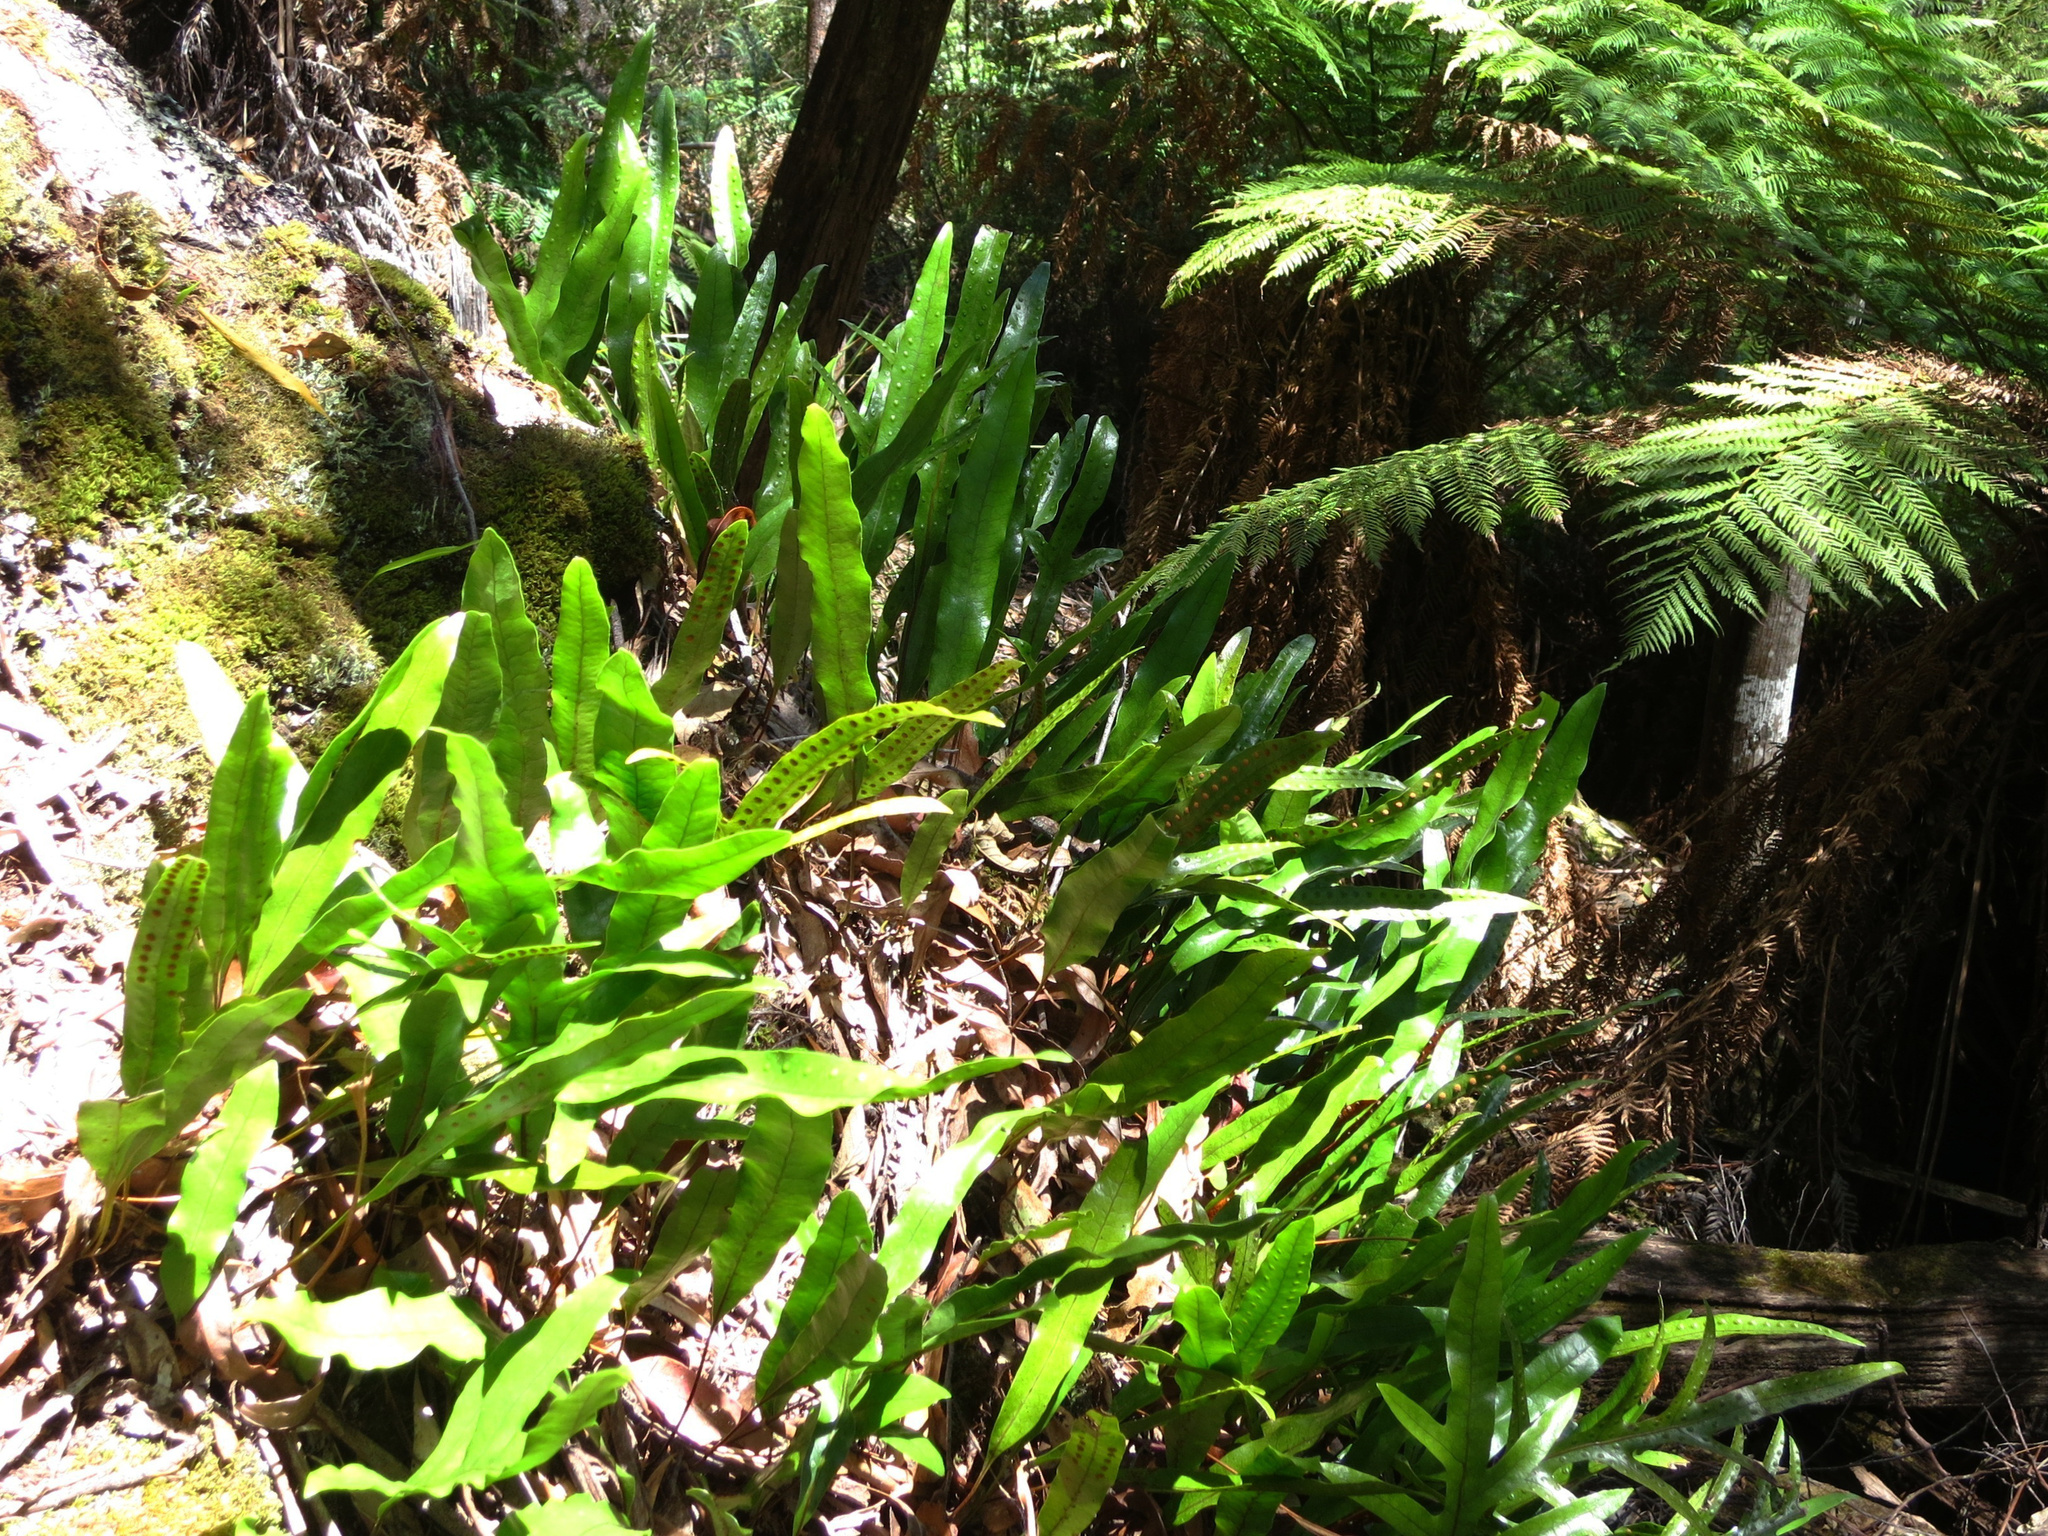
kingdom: Plantae
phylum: Tracheophyta
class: Polypodiopsida
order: Polypodiales
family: Polypodiaceae
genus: Lecanopteris
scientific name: Lecanopteris pustulata
